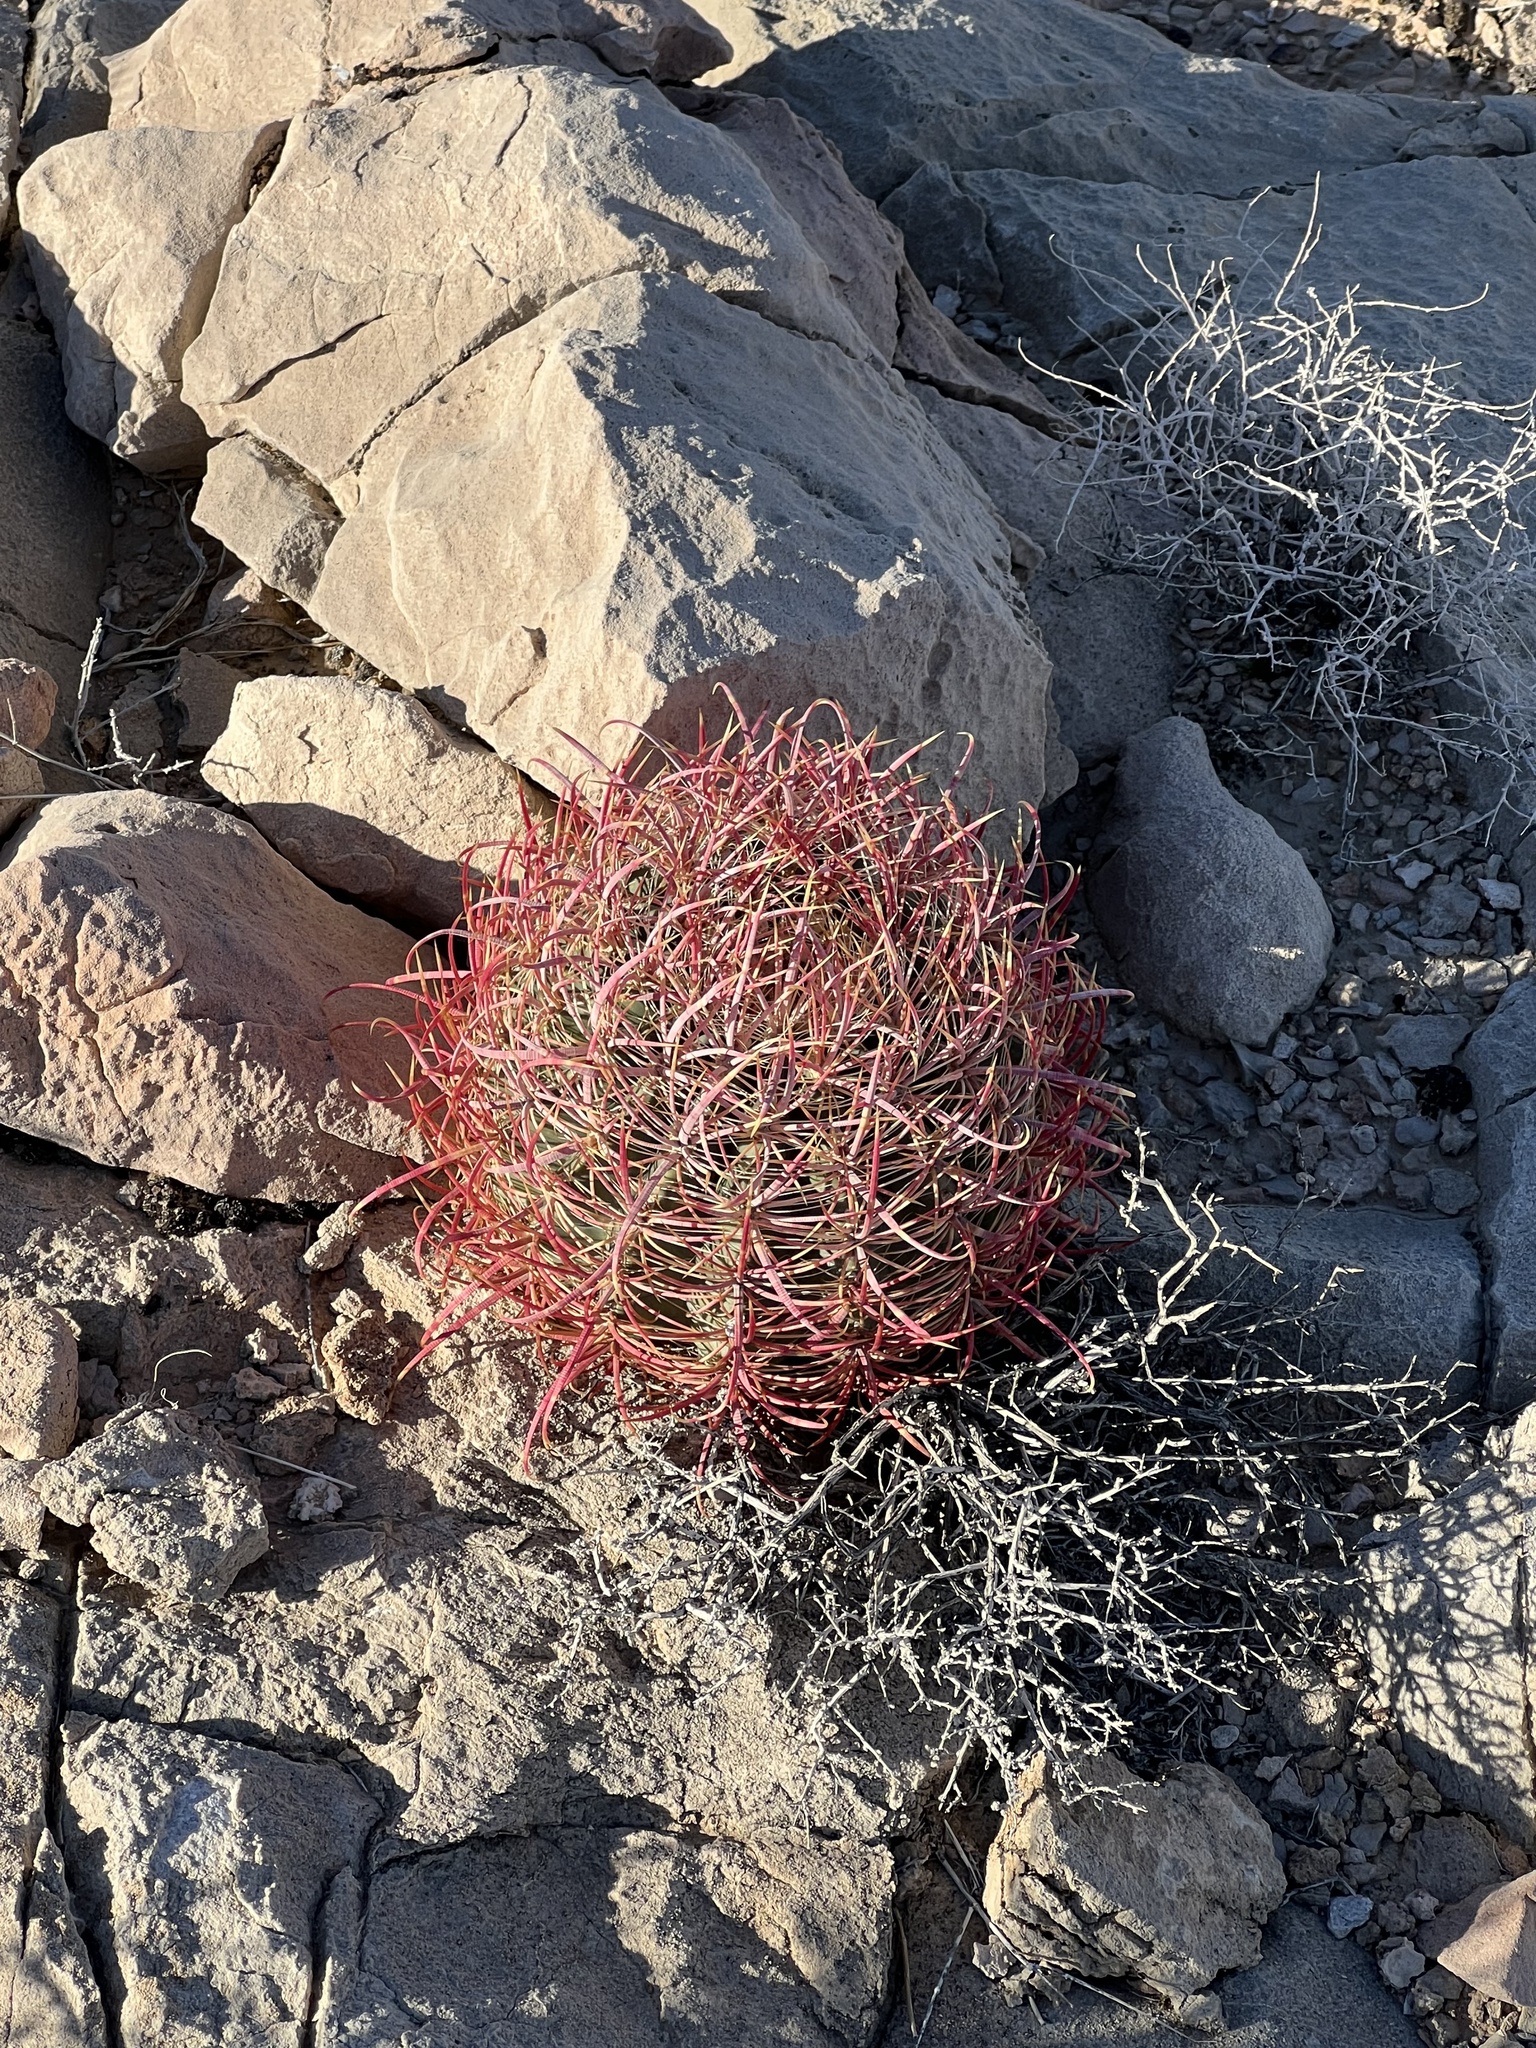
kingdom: Plantae
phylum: Tracheophyta
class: Magnoliopsida
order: Caryophyllales
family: Cactaceae
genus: Ferocactus
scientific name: Ferocactus cylindraceus
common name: California barrel cactus
